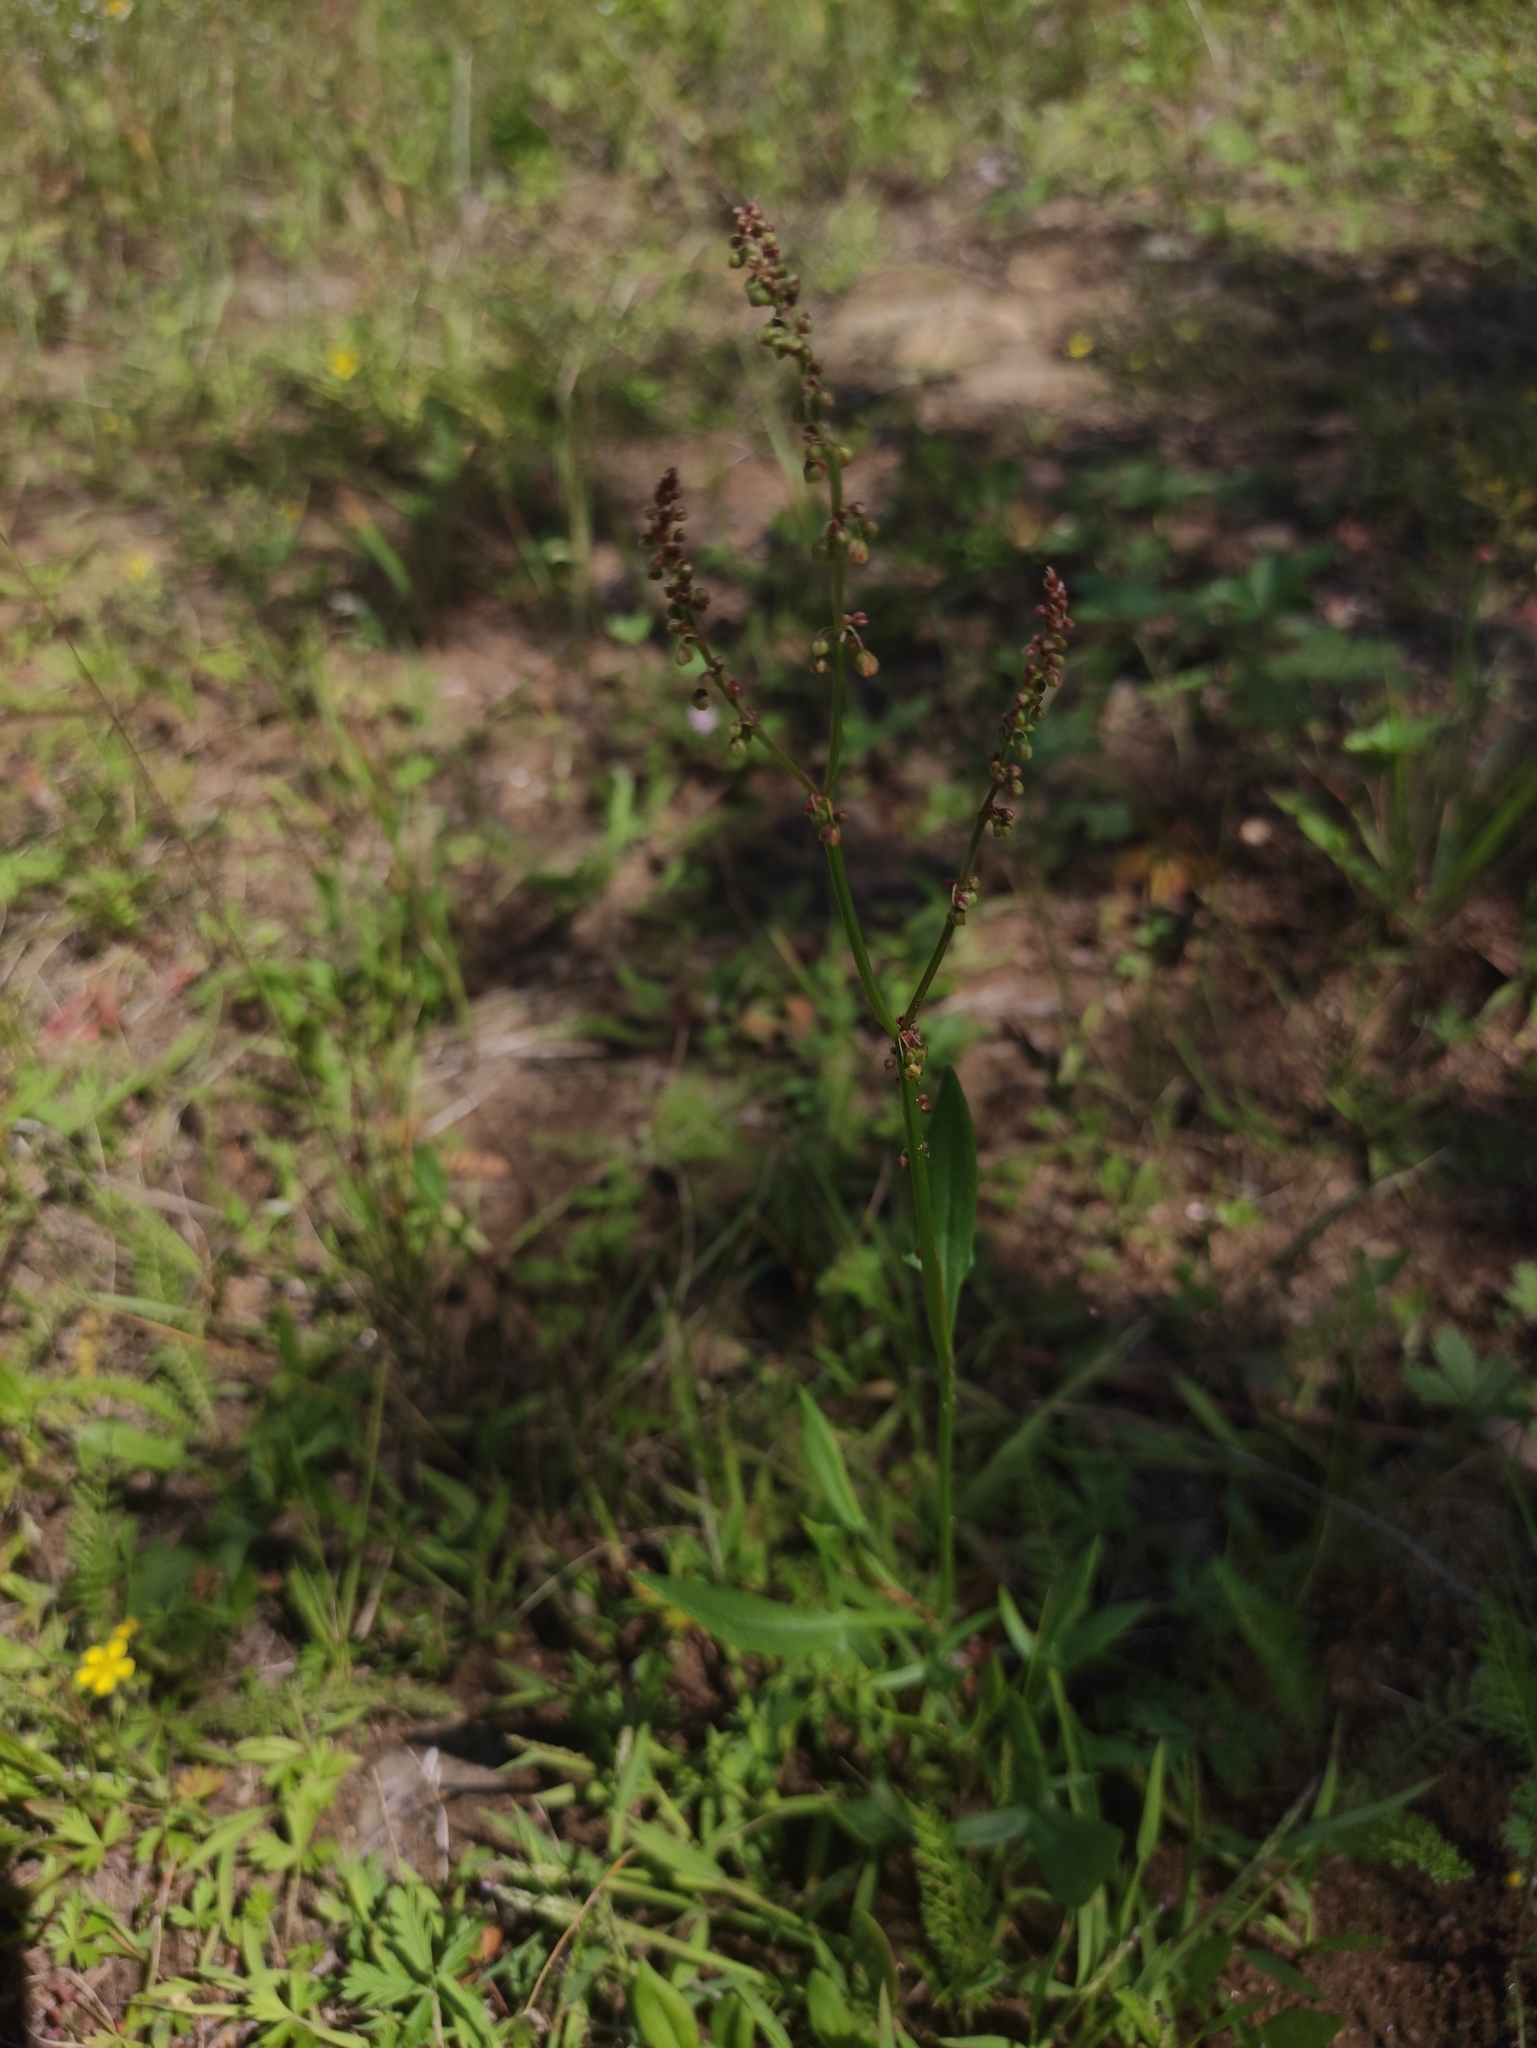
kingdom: Plantae
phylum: Tracheophyta
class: Magnoliopsida
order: Caryophyllales
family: Polygonaceae
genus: Rumex
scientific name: Rumex acetosella
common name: Common sheep sorrel
